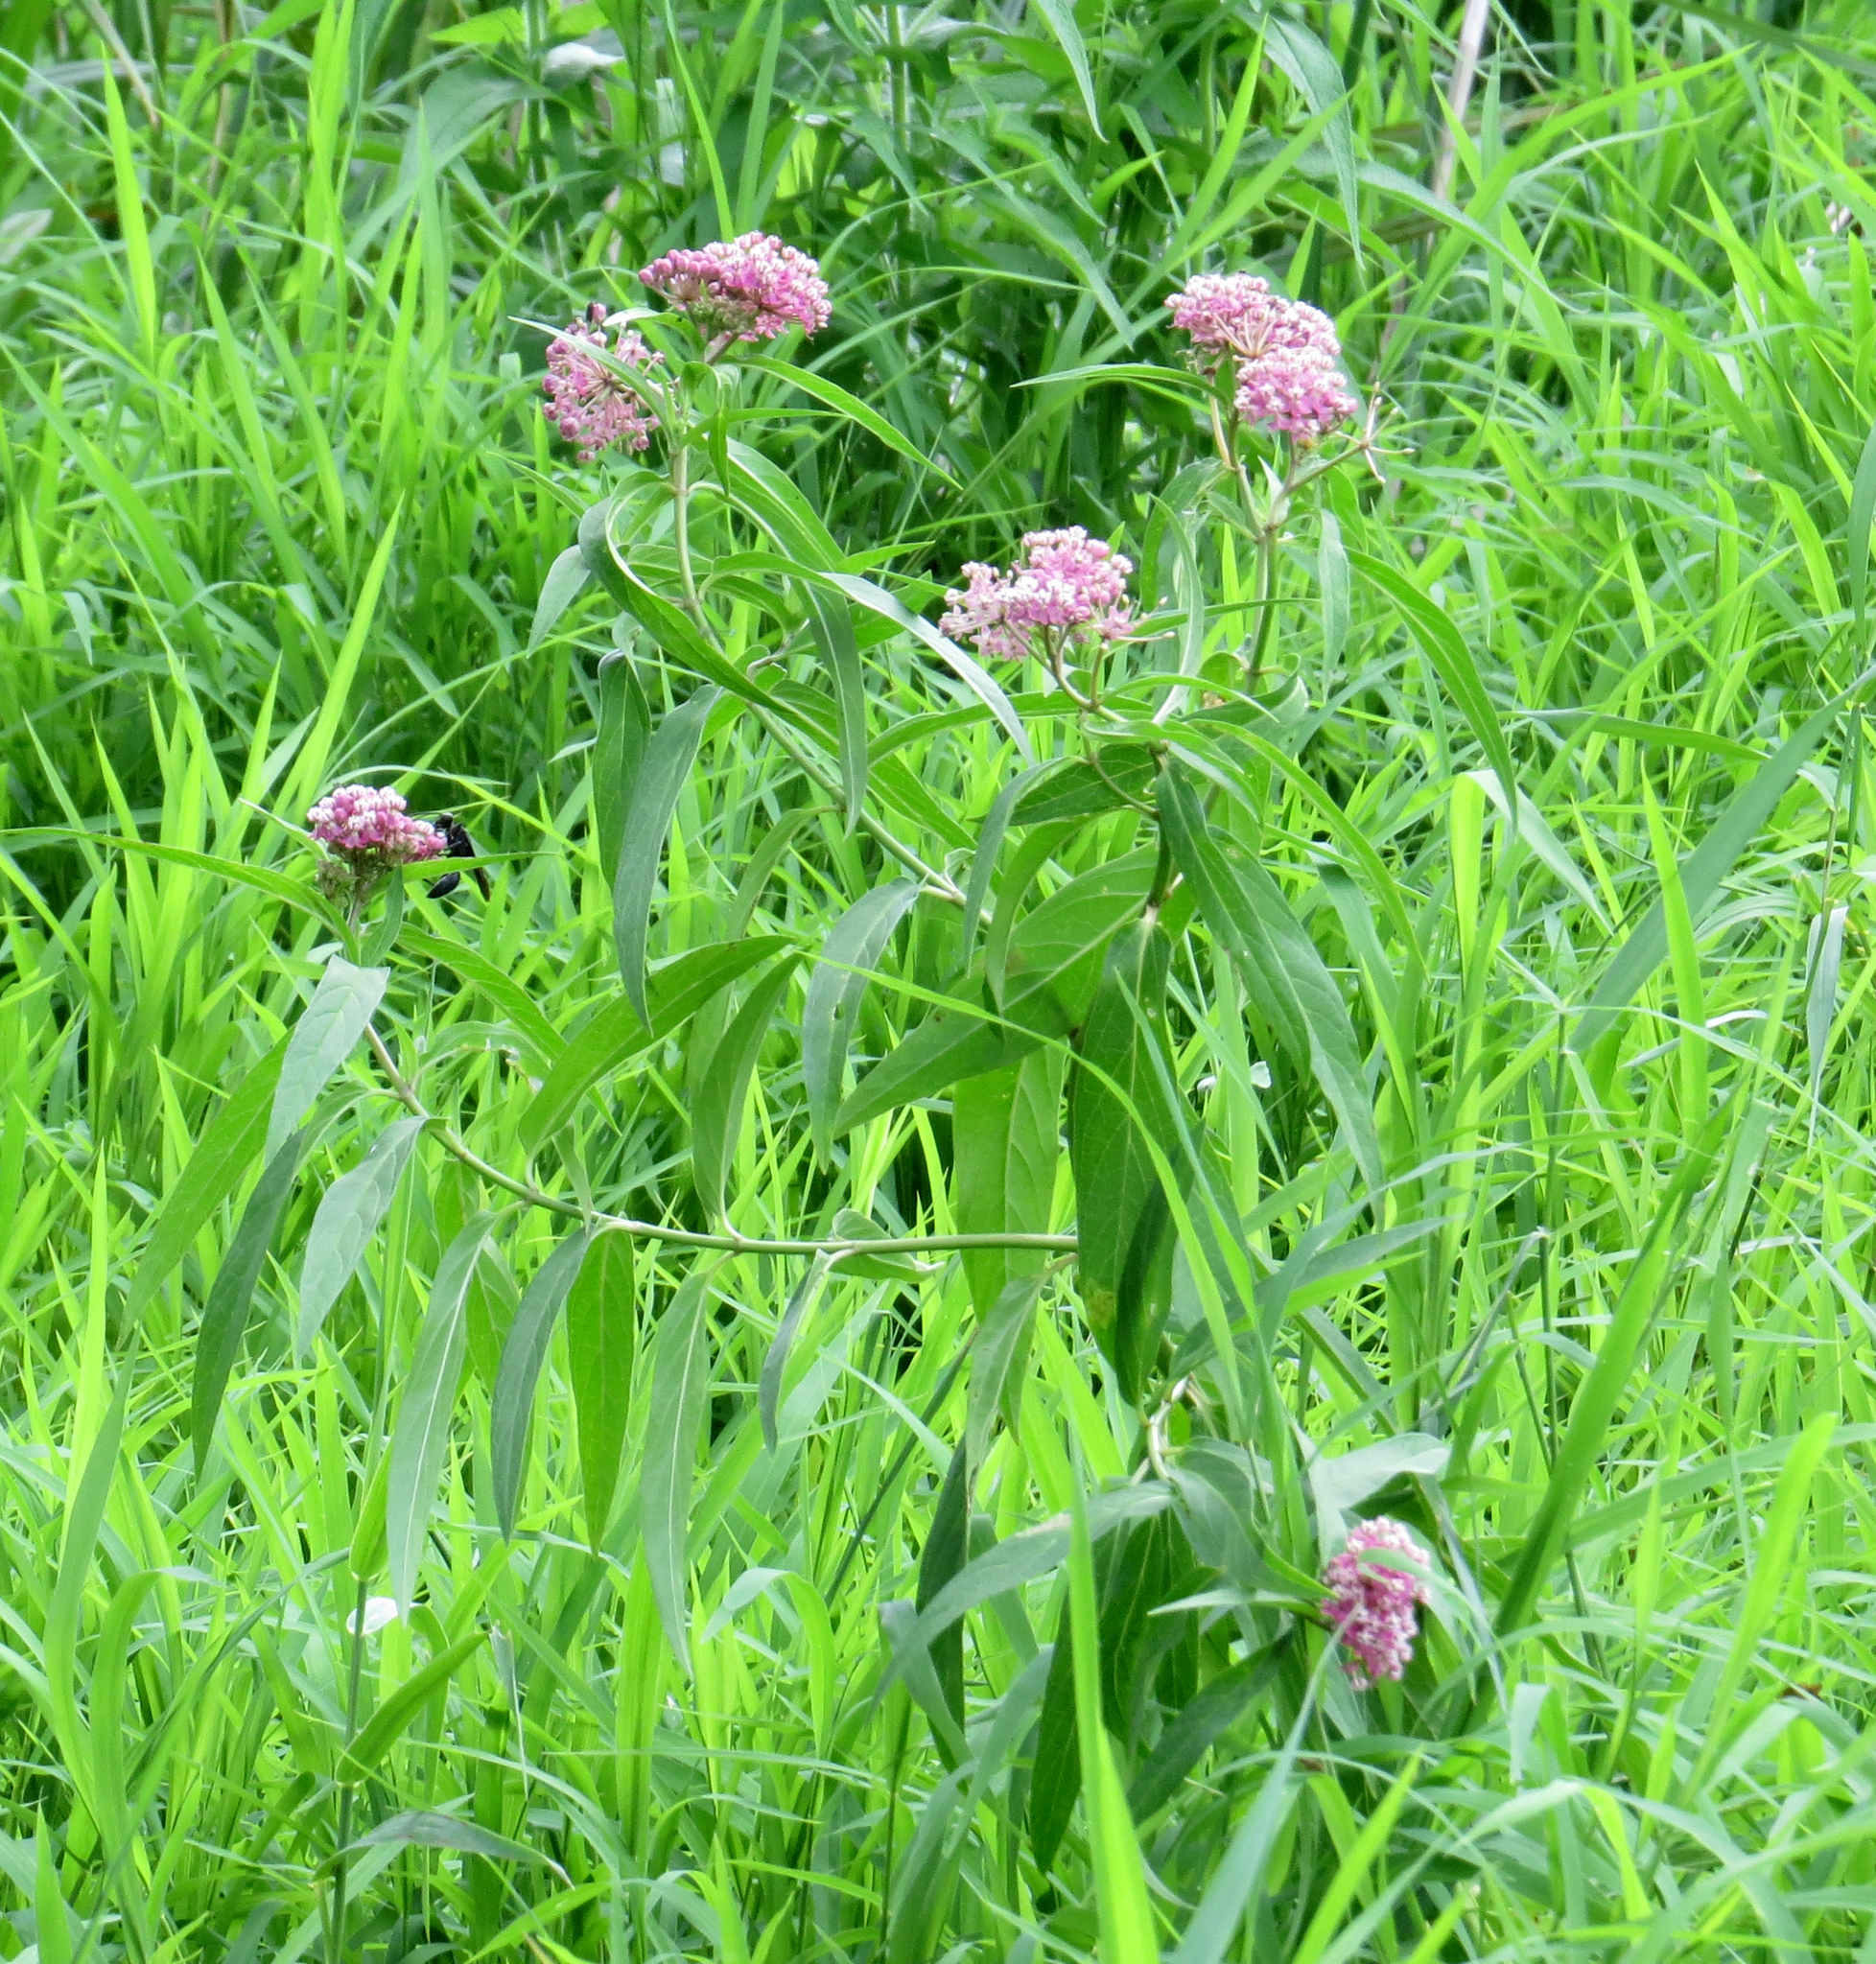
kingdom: Plantae
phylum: Tracheophyta
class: Magnoliopsida
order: Gentianales
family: Apocynaceae
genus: Asclepias
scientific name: Asclepias incarnata
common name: Swamp milkweed
